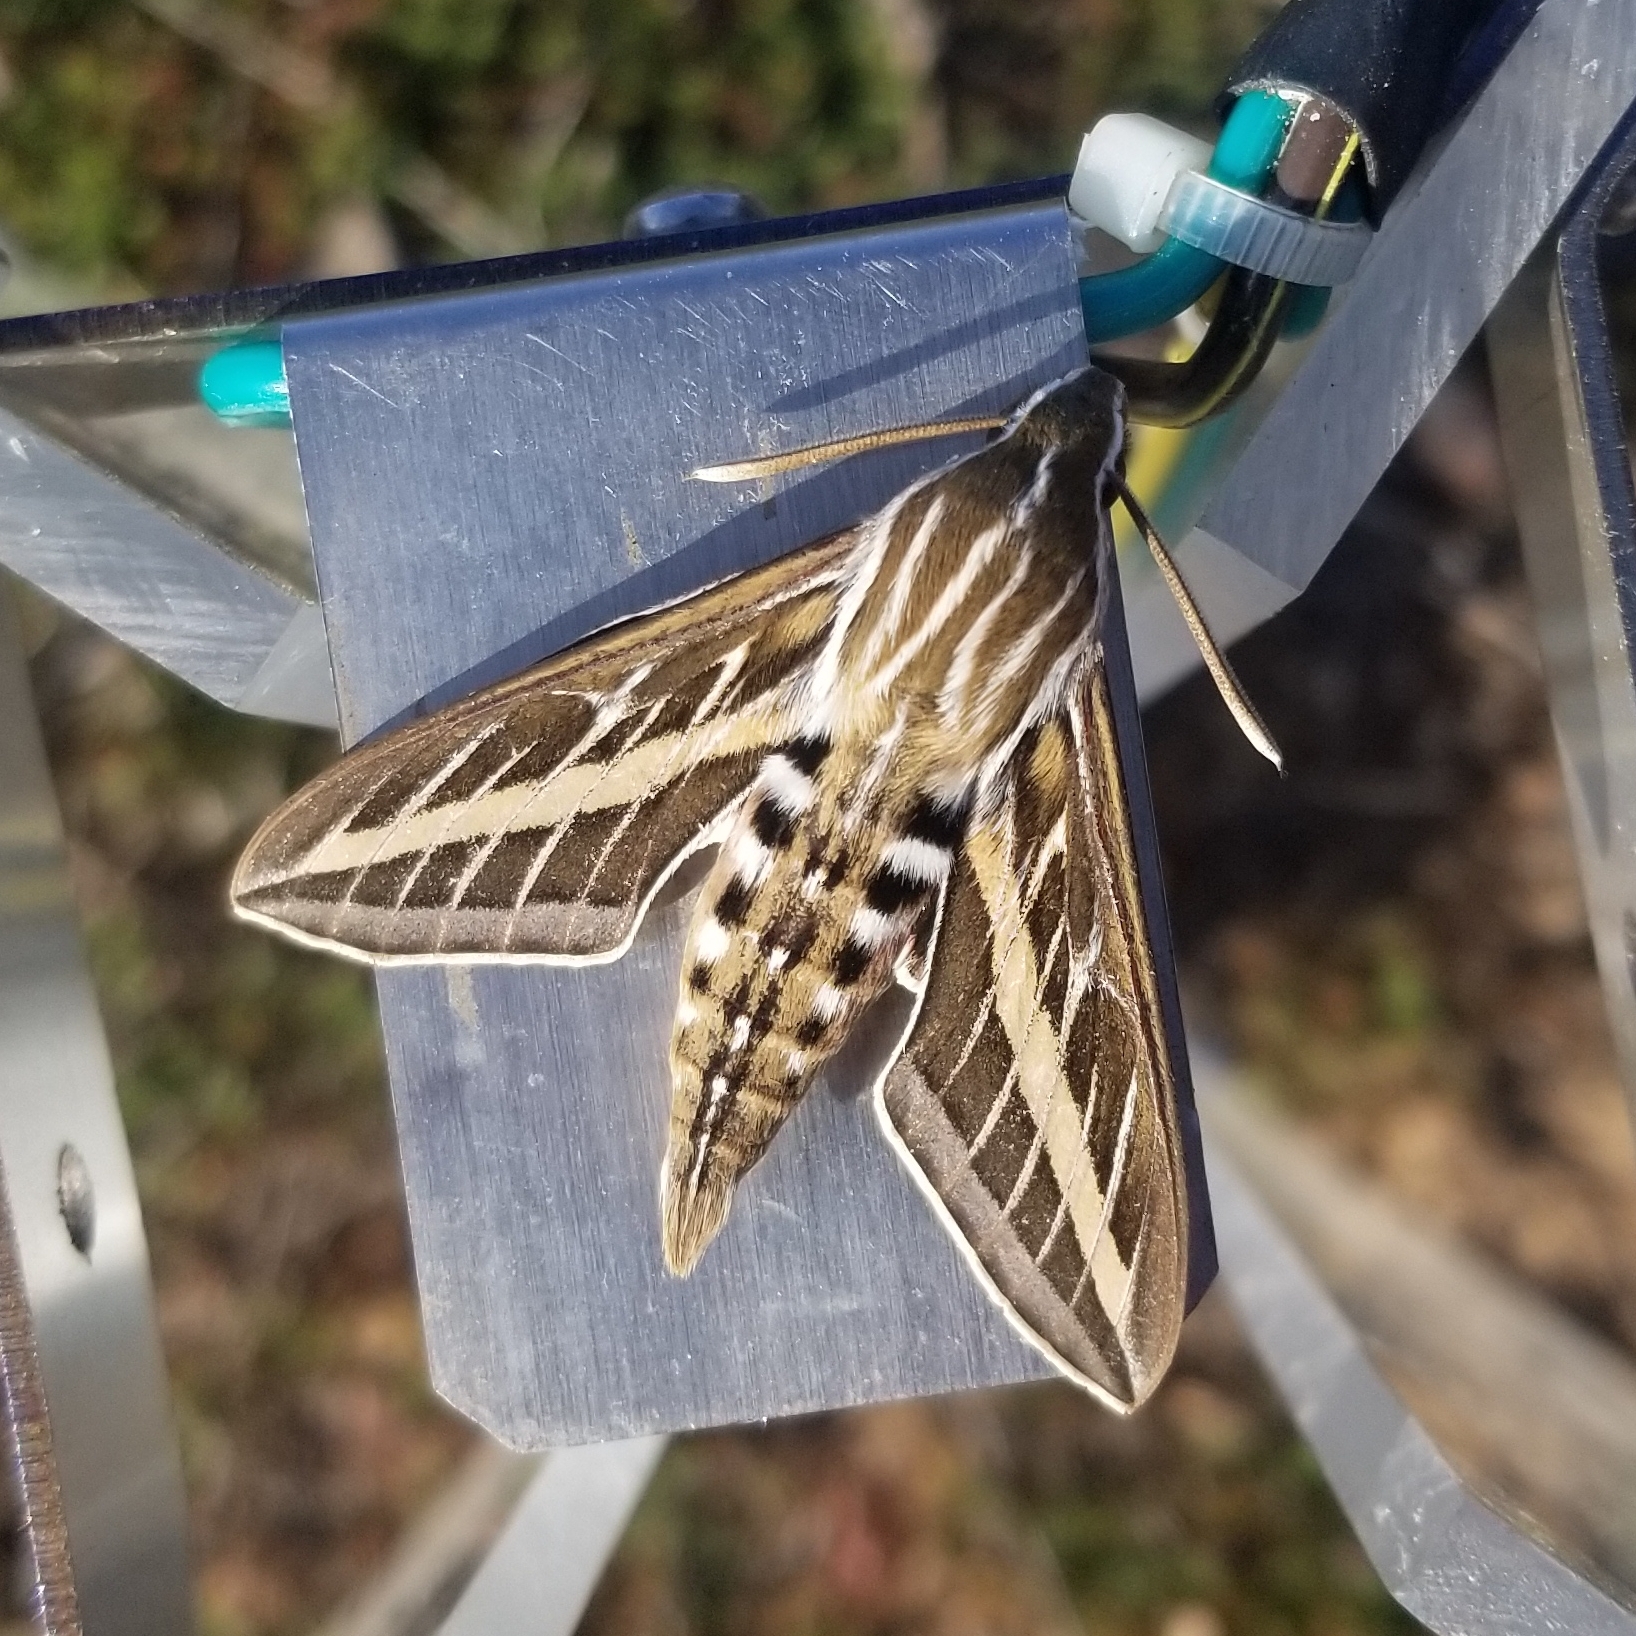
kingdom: Animalia
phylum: Arthropoda
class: Insecta
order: Lepidoptera
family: Sphingidae
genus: Hyles
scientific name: Hyles lineata
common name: White-lined sphinx
